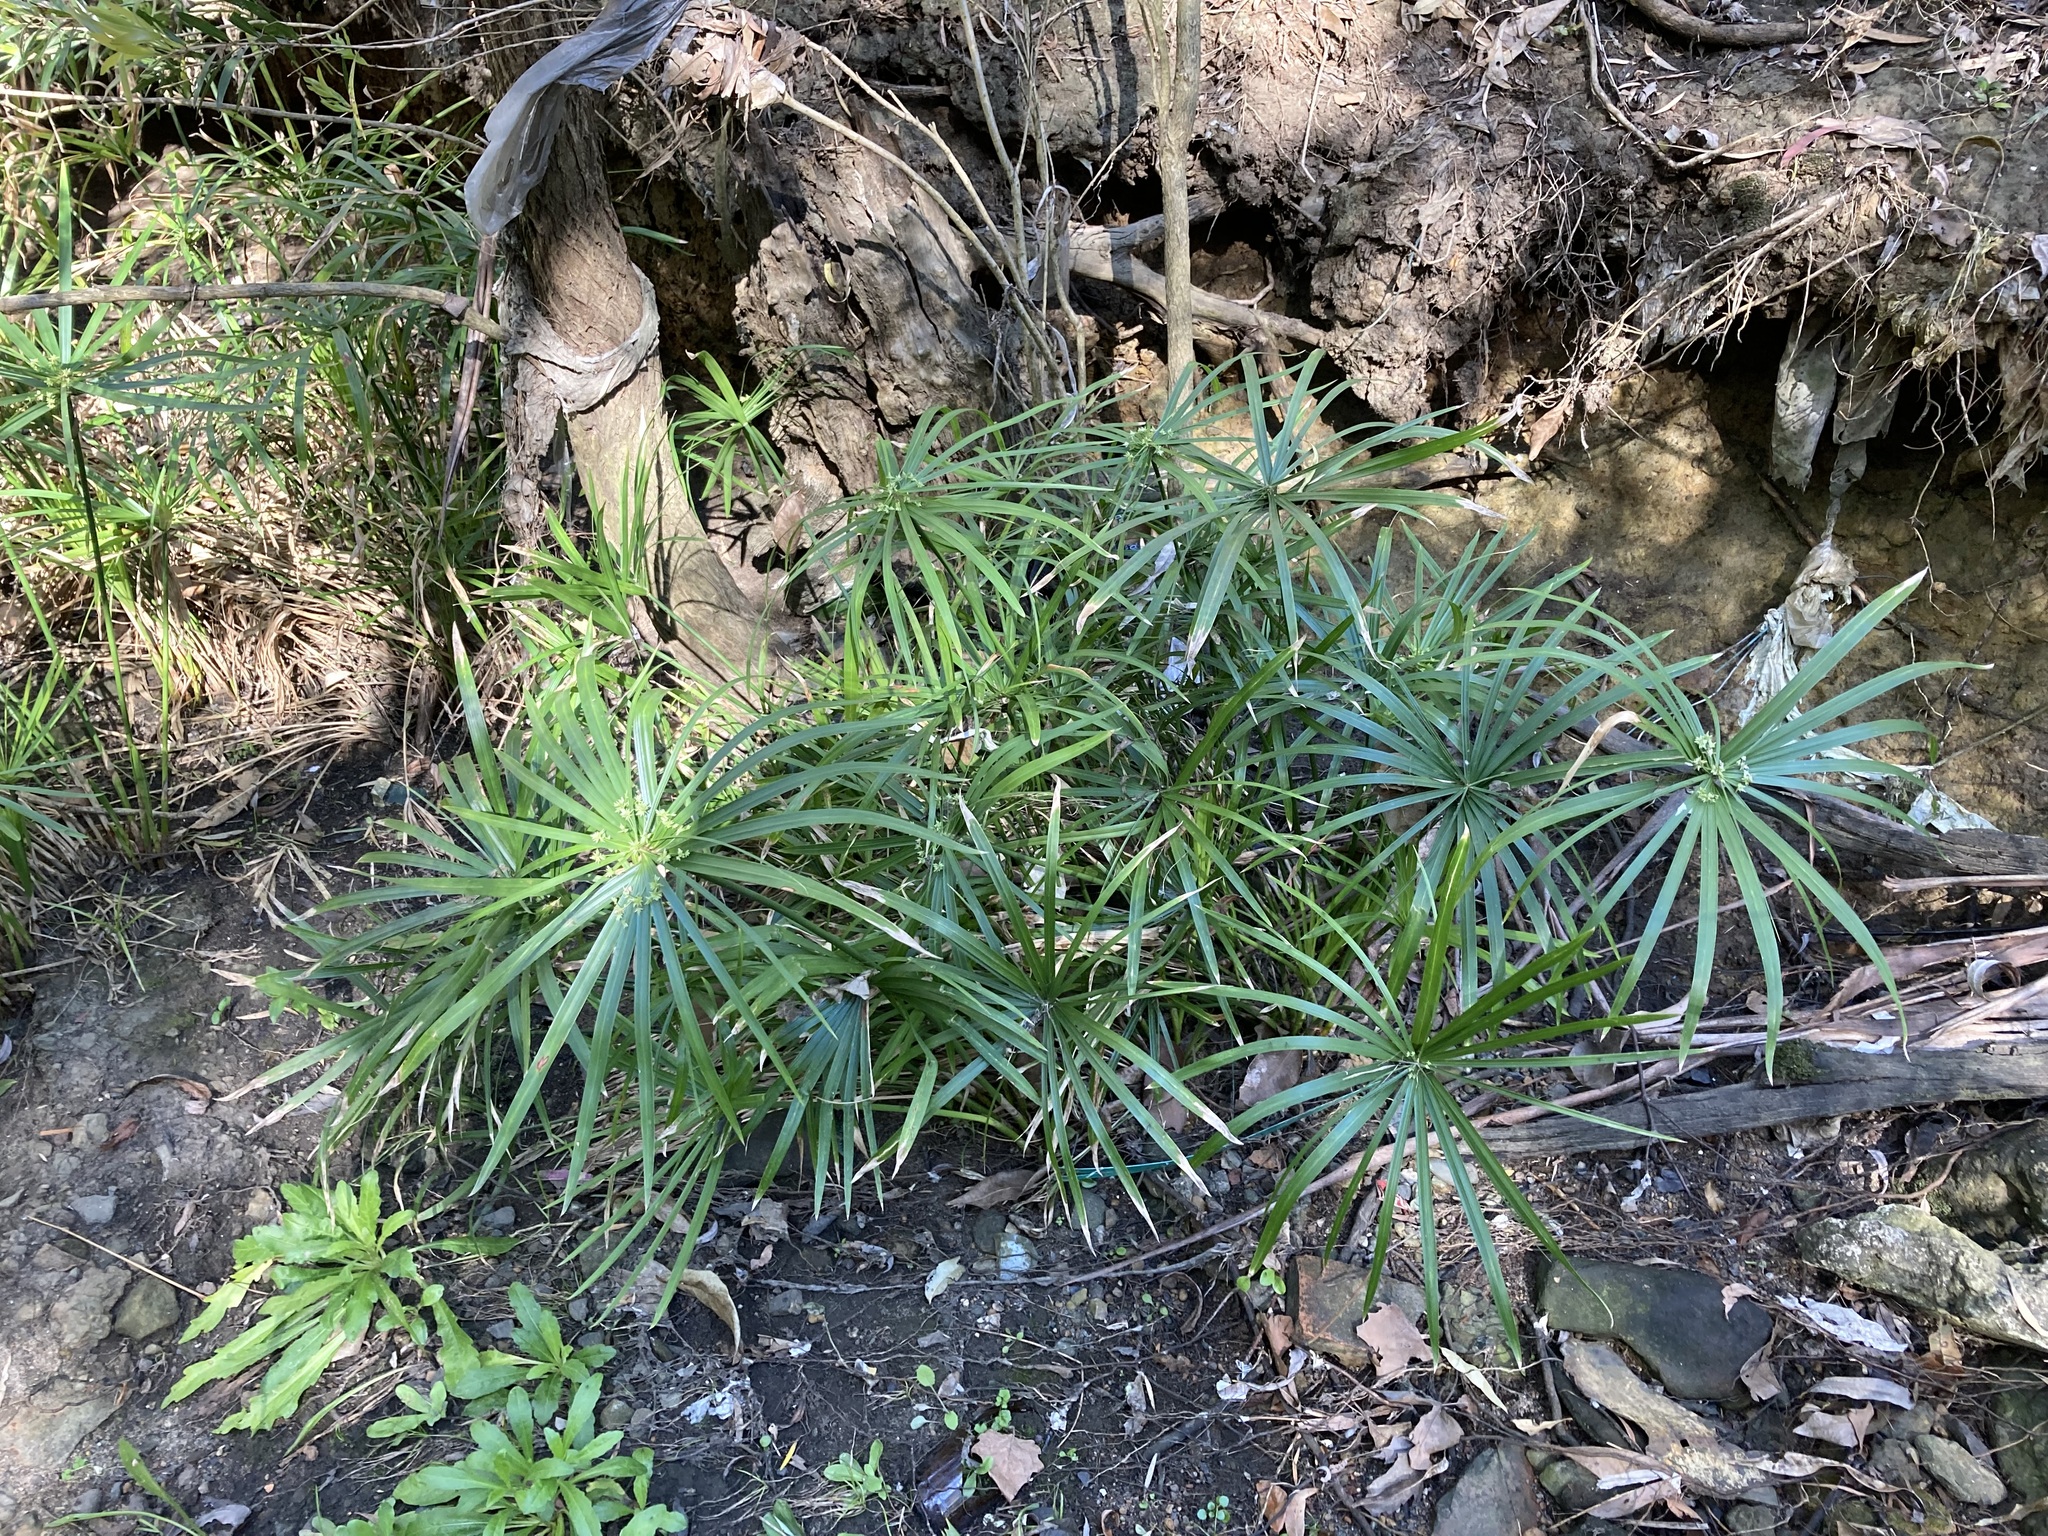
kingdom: Plantae
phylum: Tracheophyta
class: Liliopsida
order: Poales
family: Cyperaceae
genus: Cyperus
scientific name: Cyperus alternifolius
